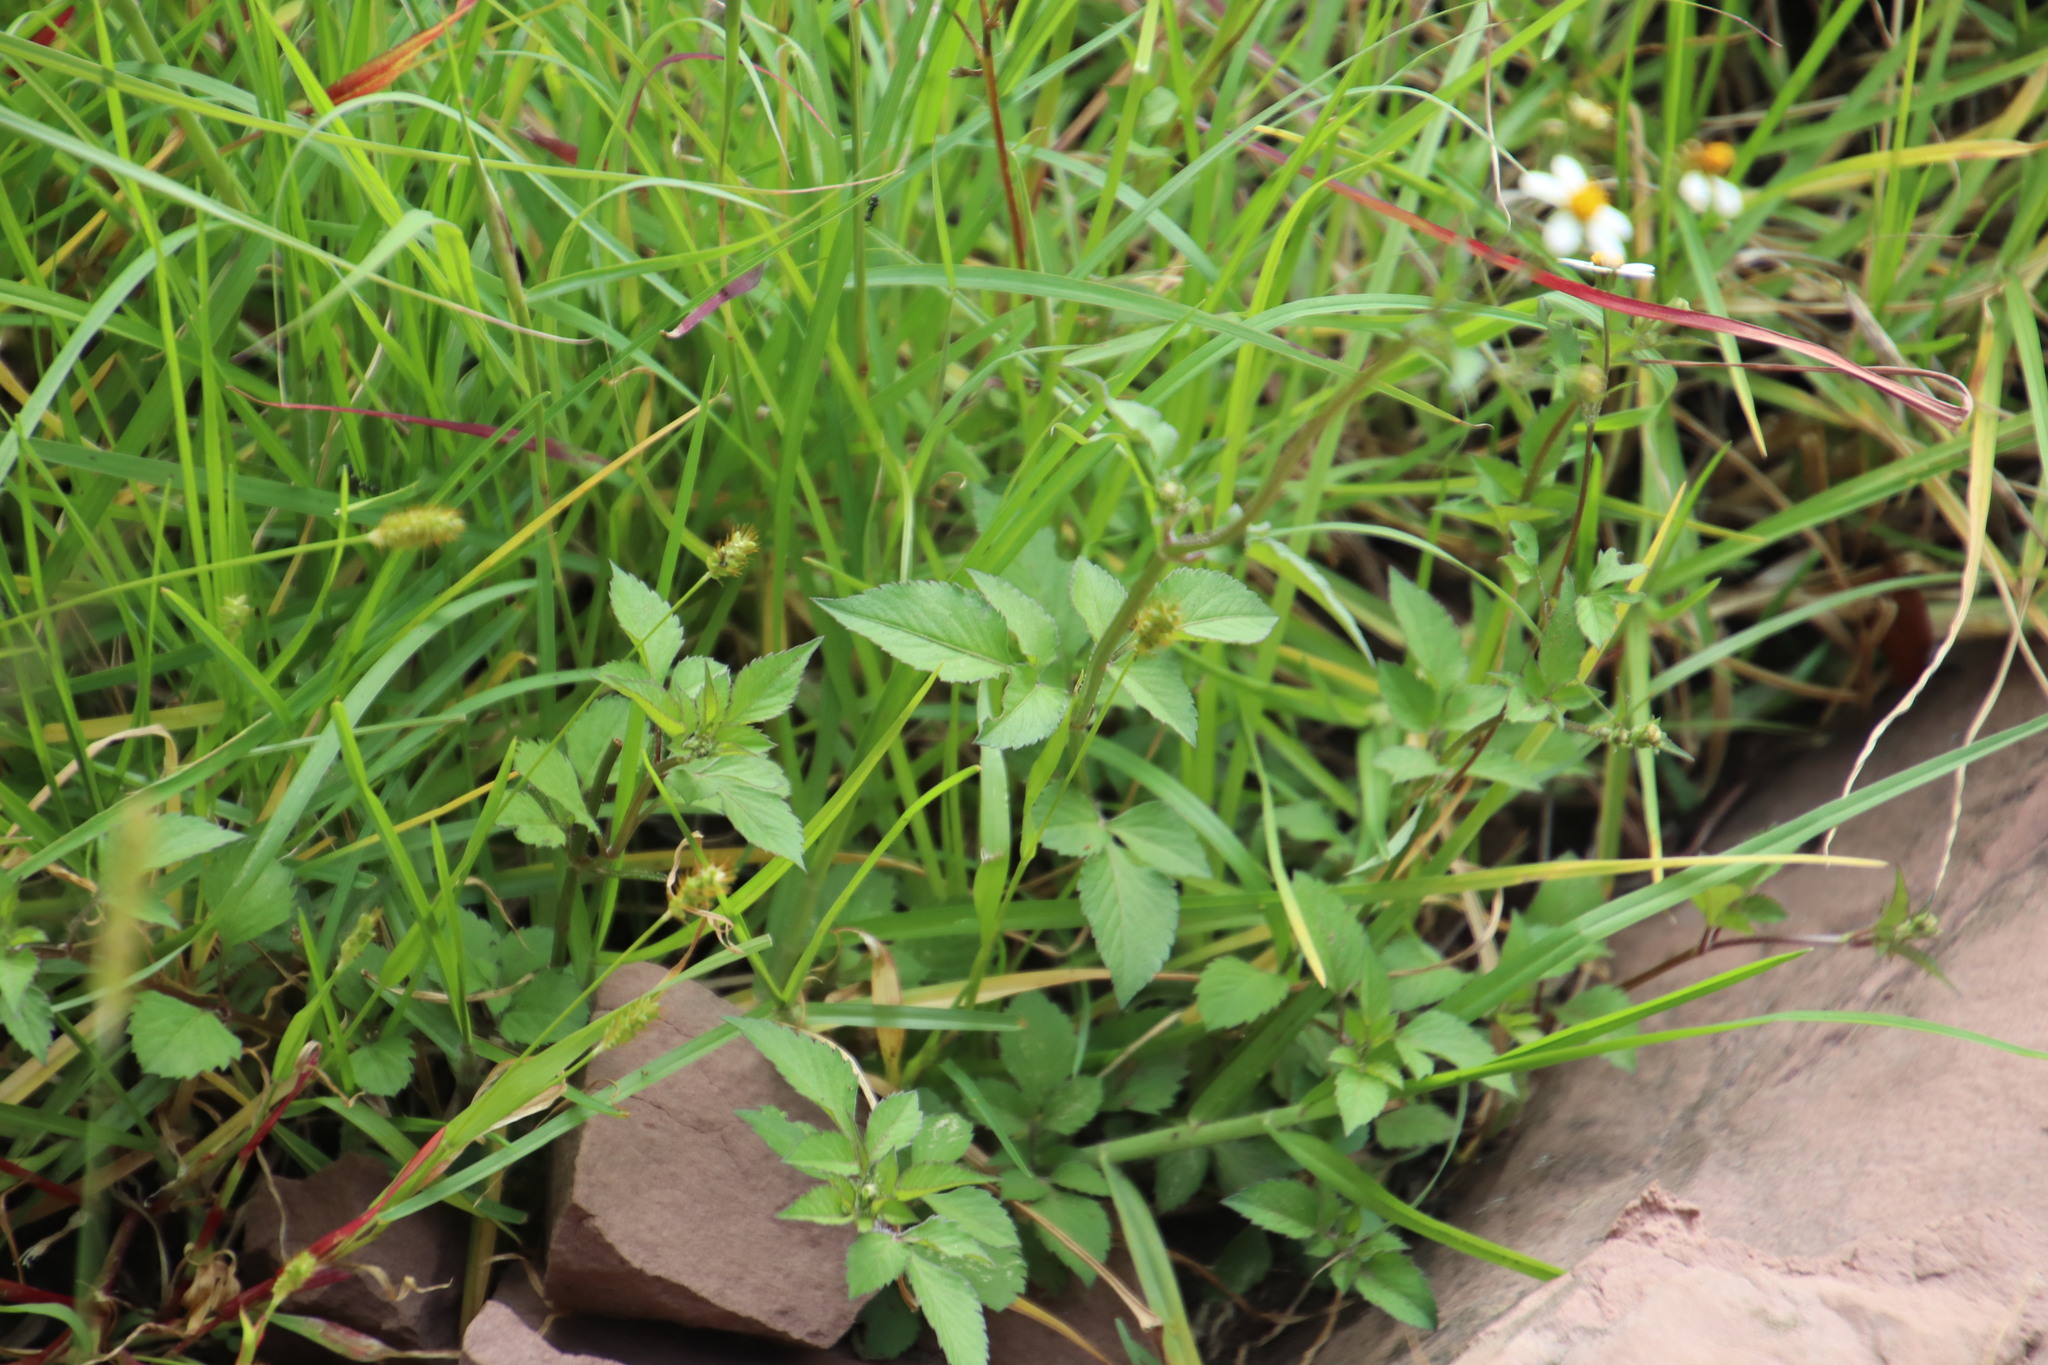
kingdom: Plantae
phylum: Tracheophyta
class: Magnoliopsida
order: Asterales
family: Asteraceae
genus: Bidens
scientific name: Bidens pilosa
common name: Black-jack
